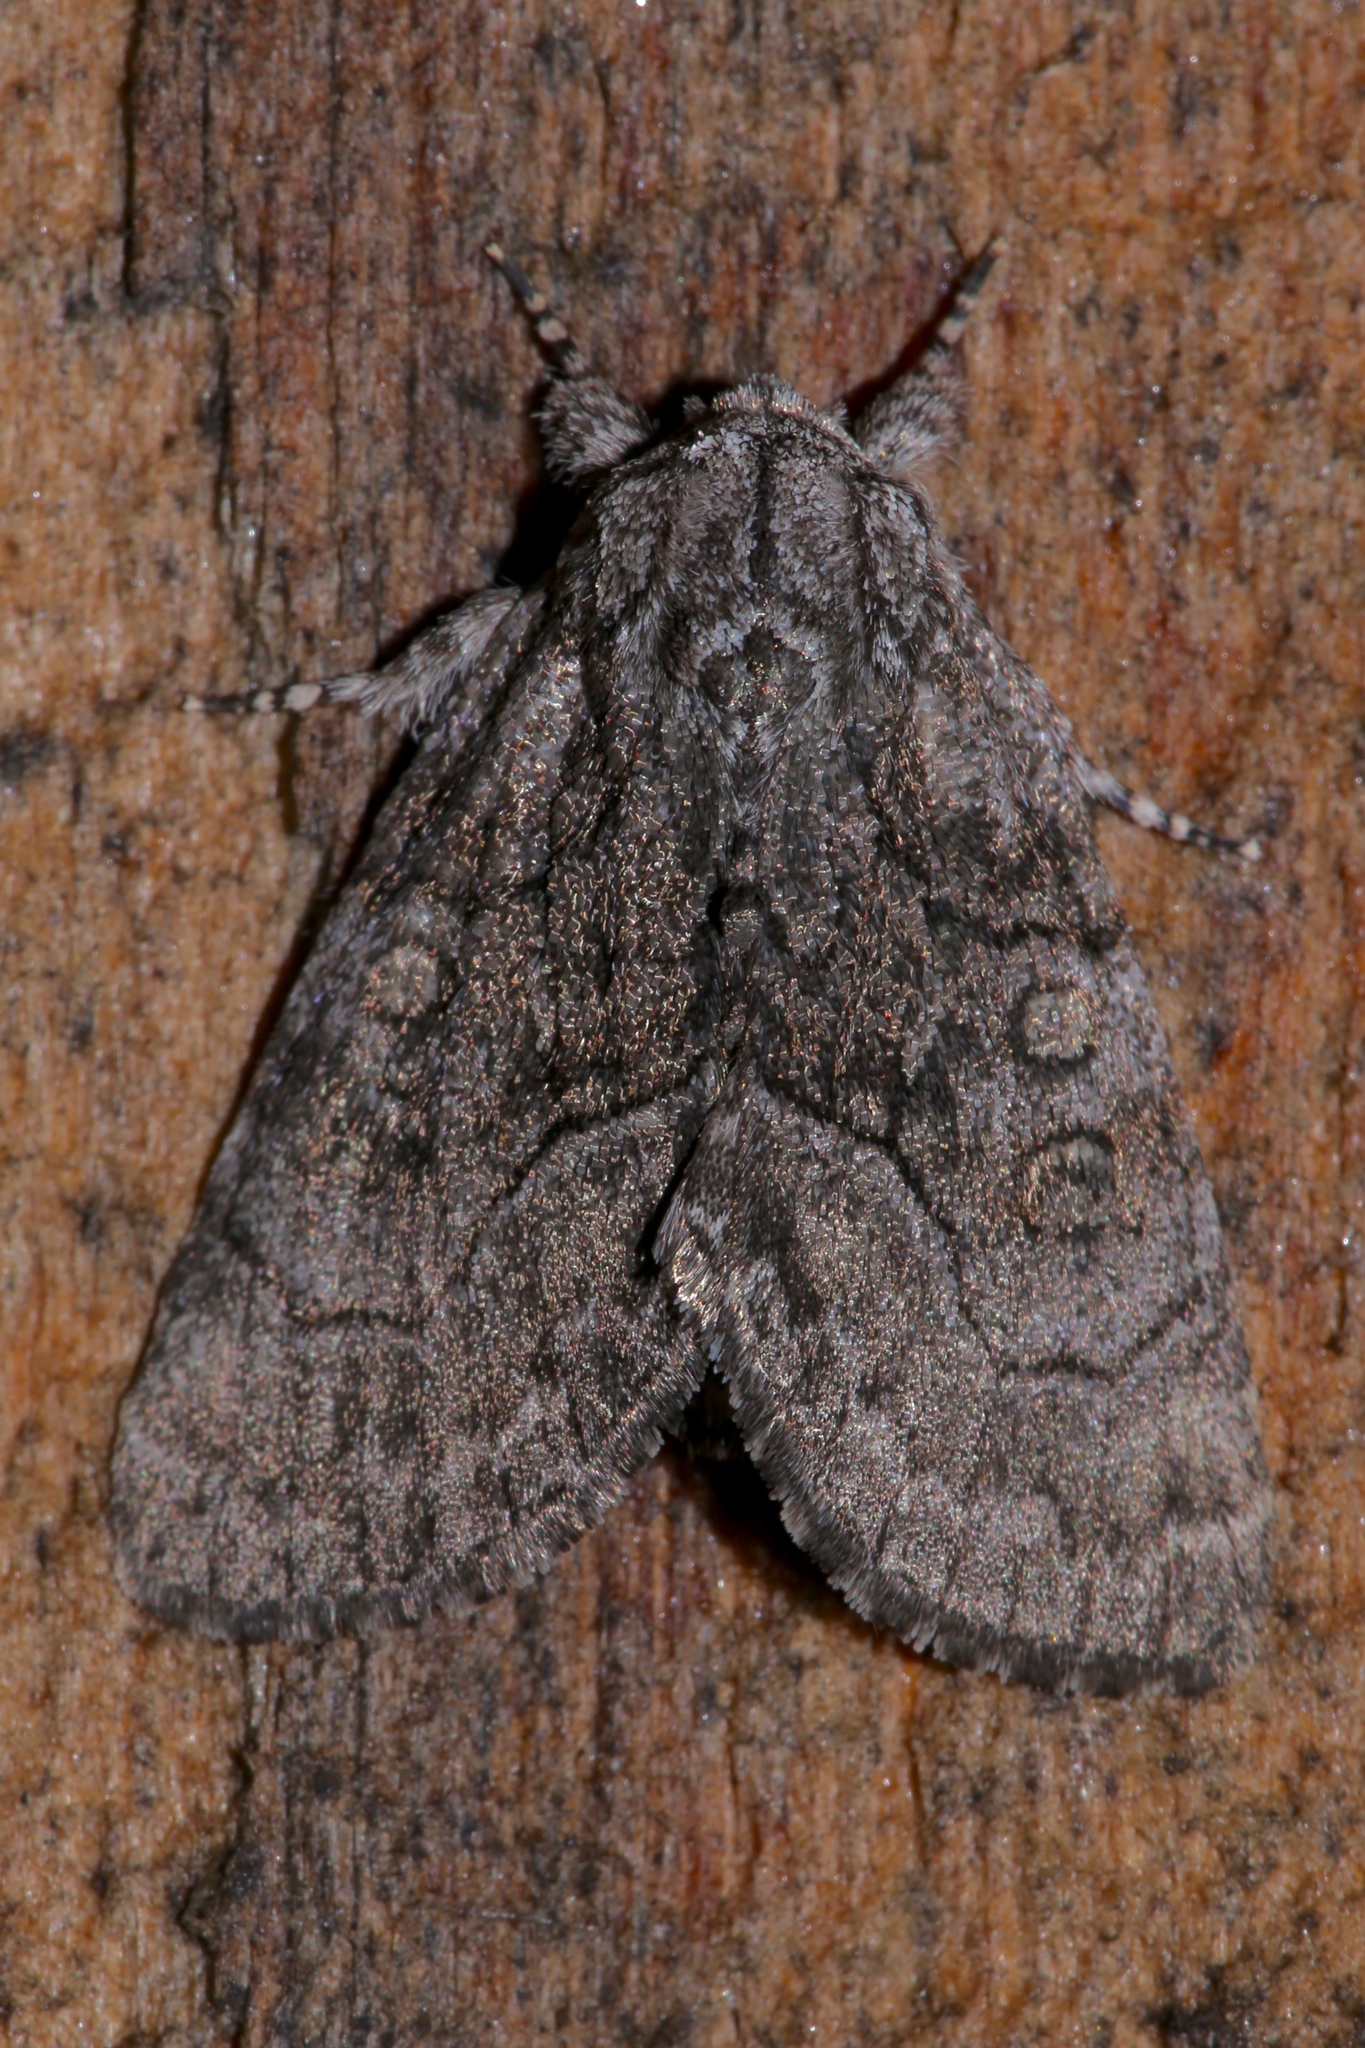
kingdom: Animalia
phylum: Arthropoda
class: Insecta
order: Lepidoptera
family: Noctuidae
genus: Raphia
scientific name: Raphia frater
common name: Brother
